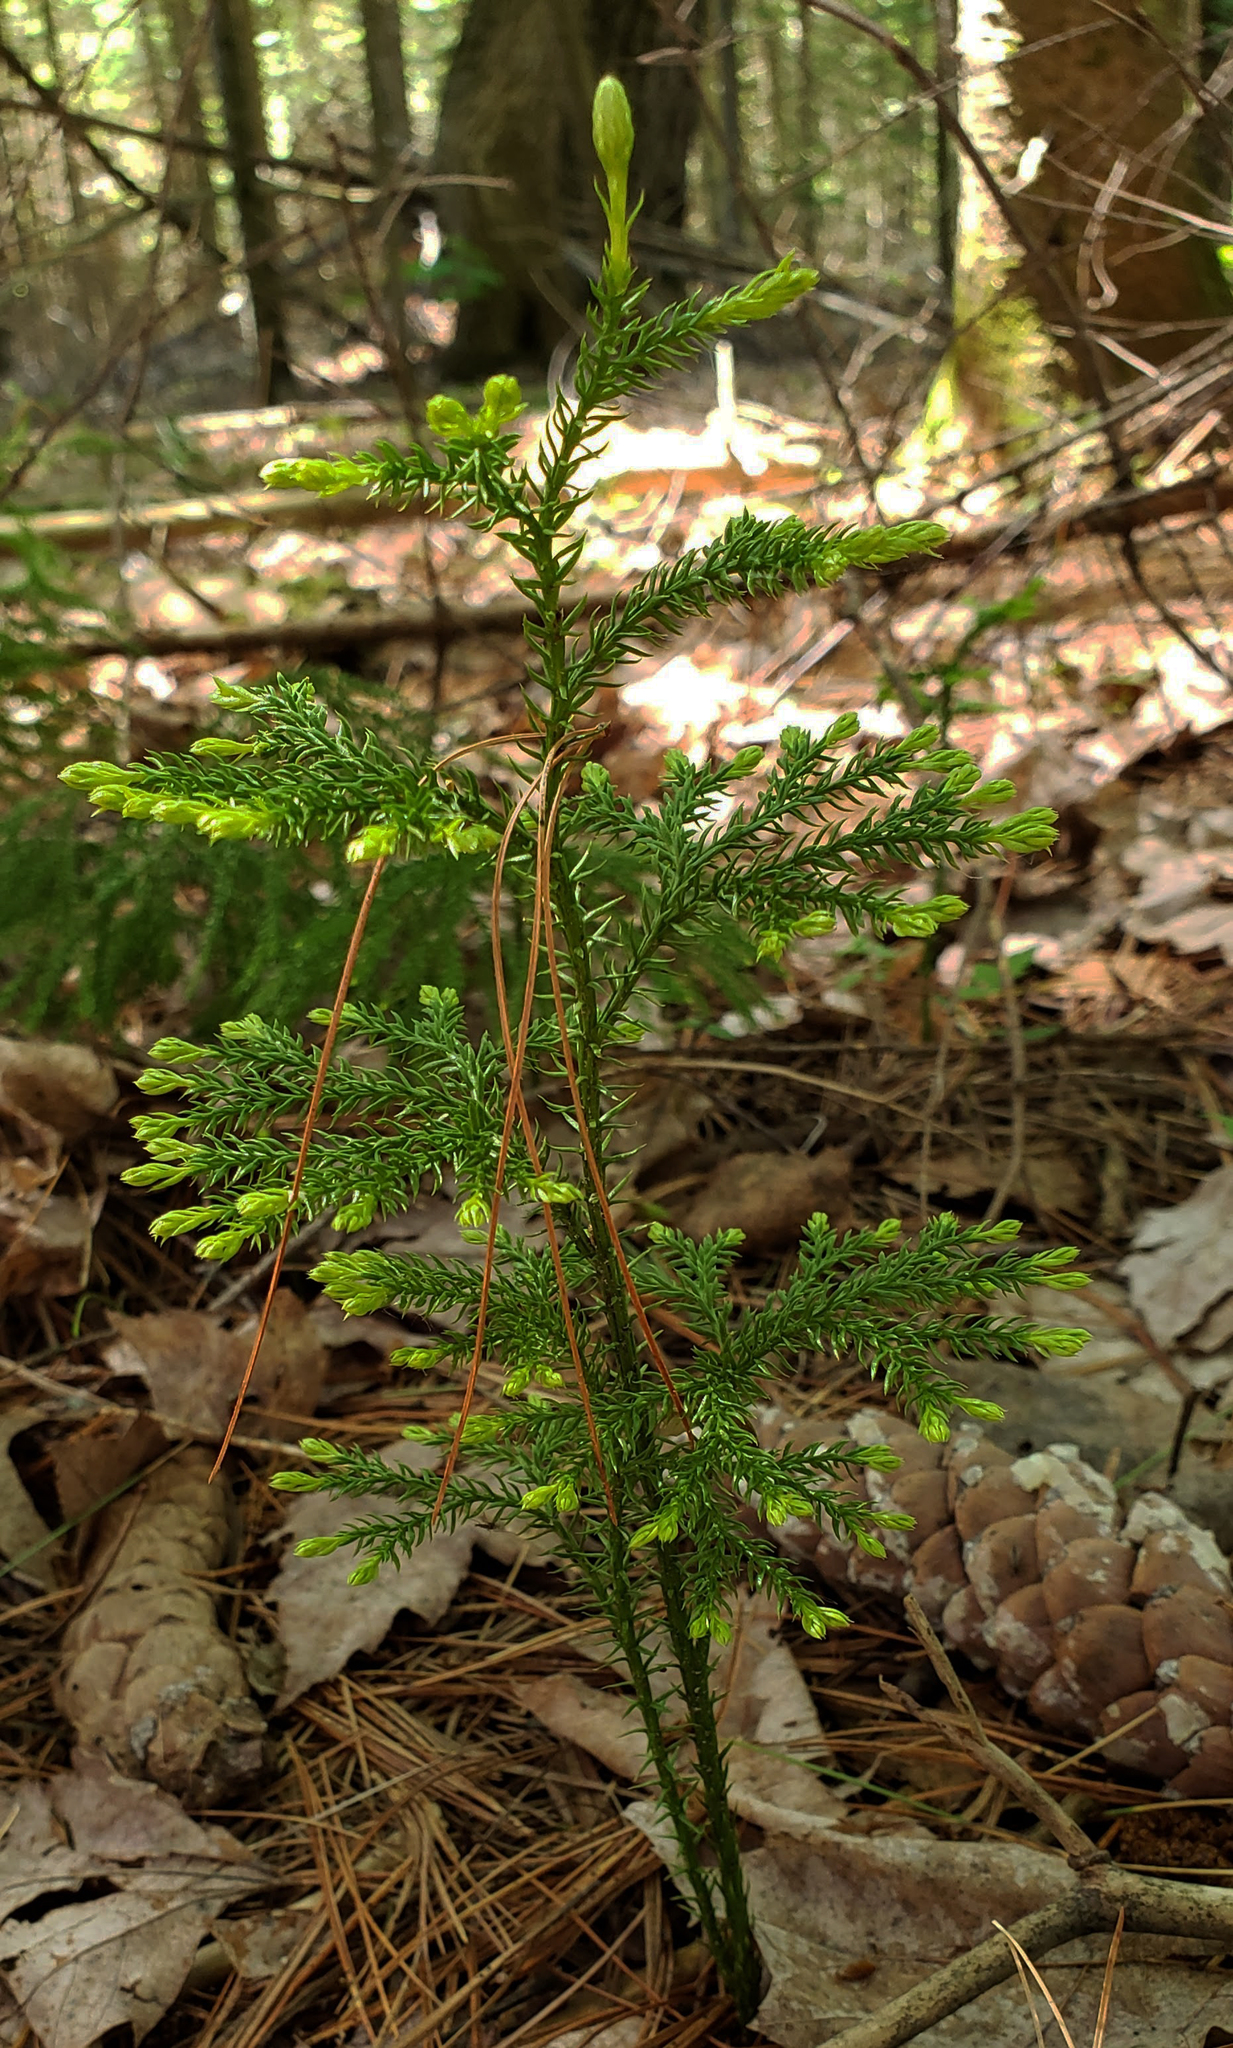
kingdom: Plantae
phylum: Tracheophyta
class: Lycopodiopsida
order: Lycopodiales
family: Lycopodiaceae
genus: Dendrolycopodium
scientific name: Dendrolycopodium dendroideum
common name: Northern tree-clubmoss
